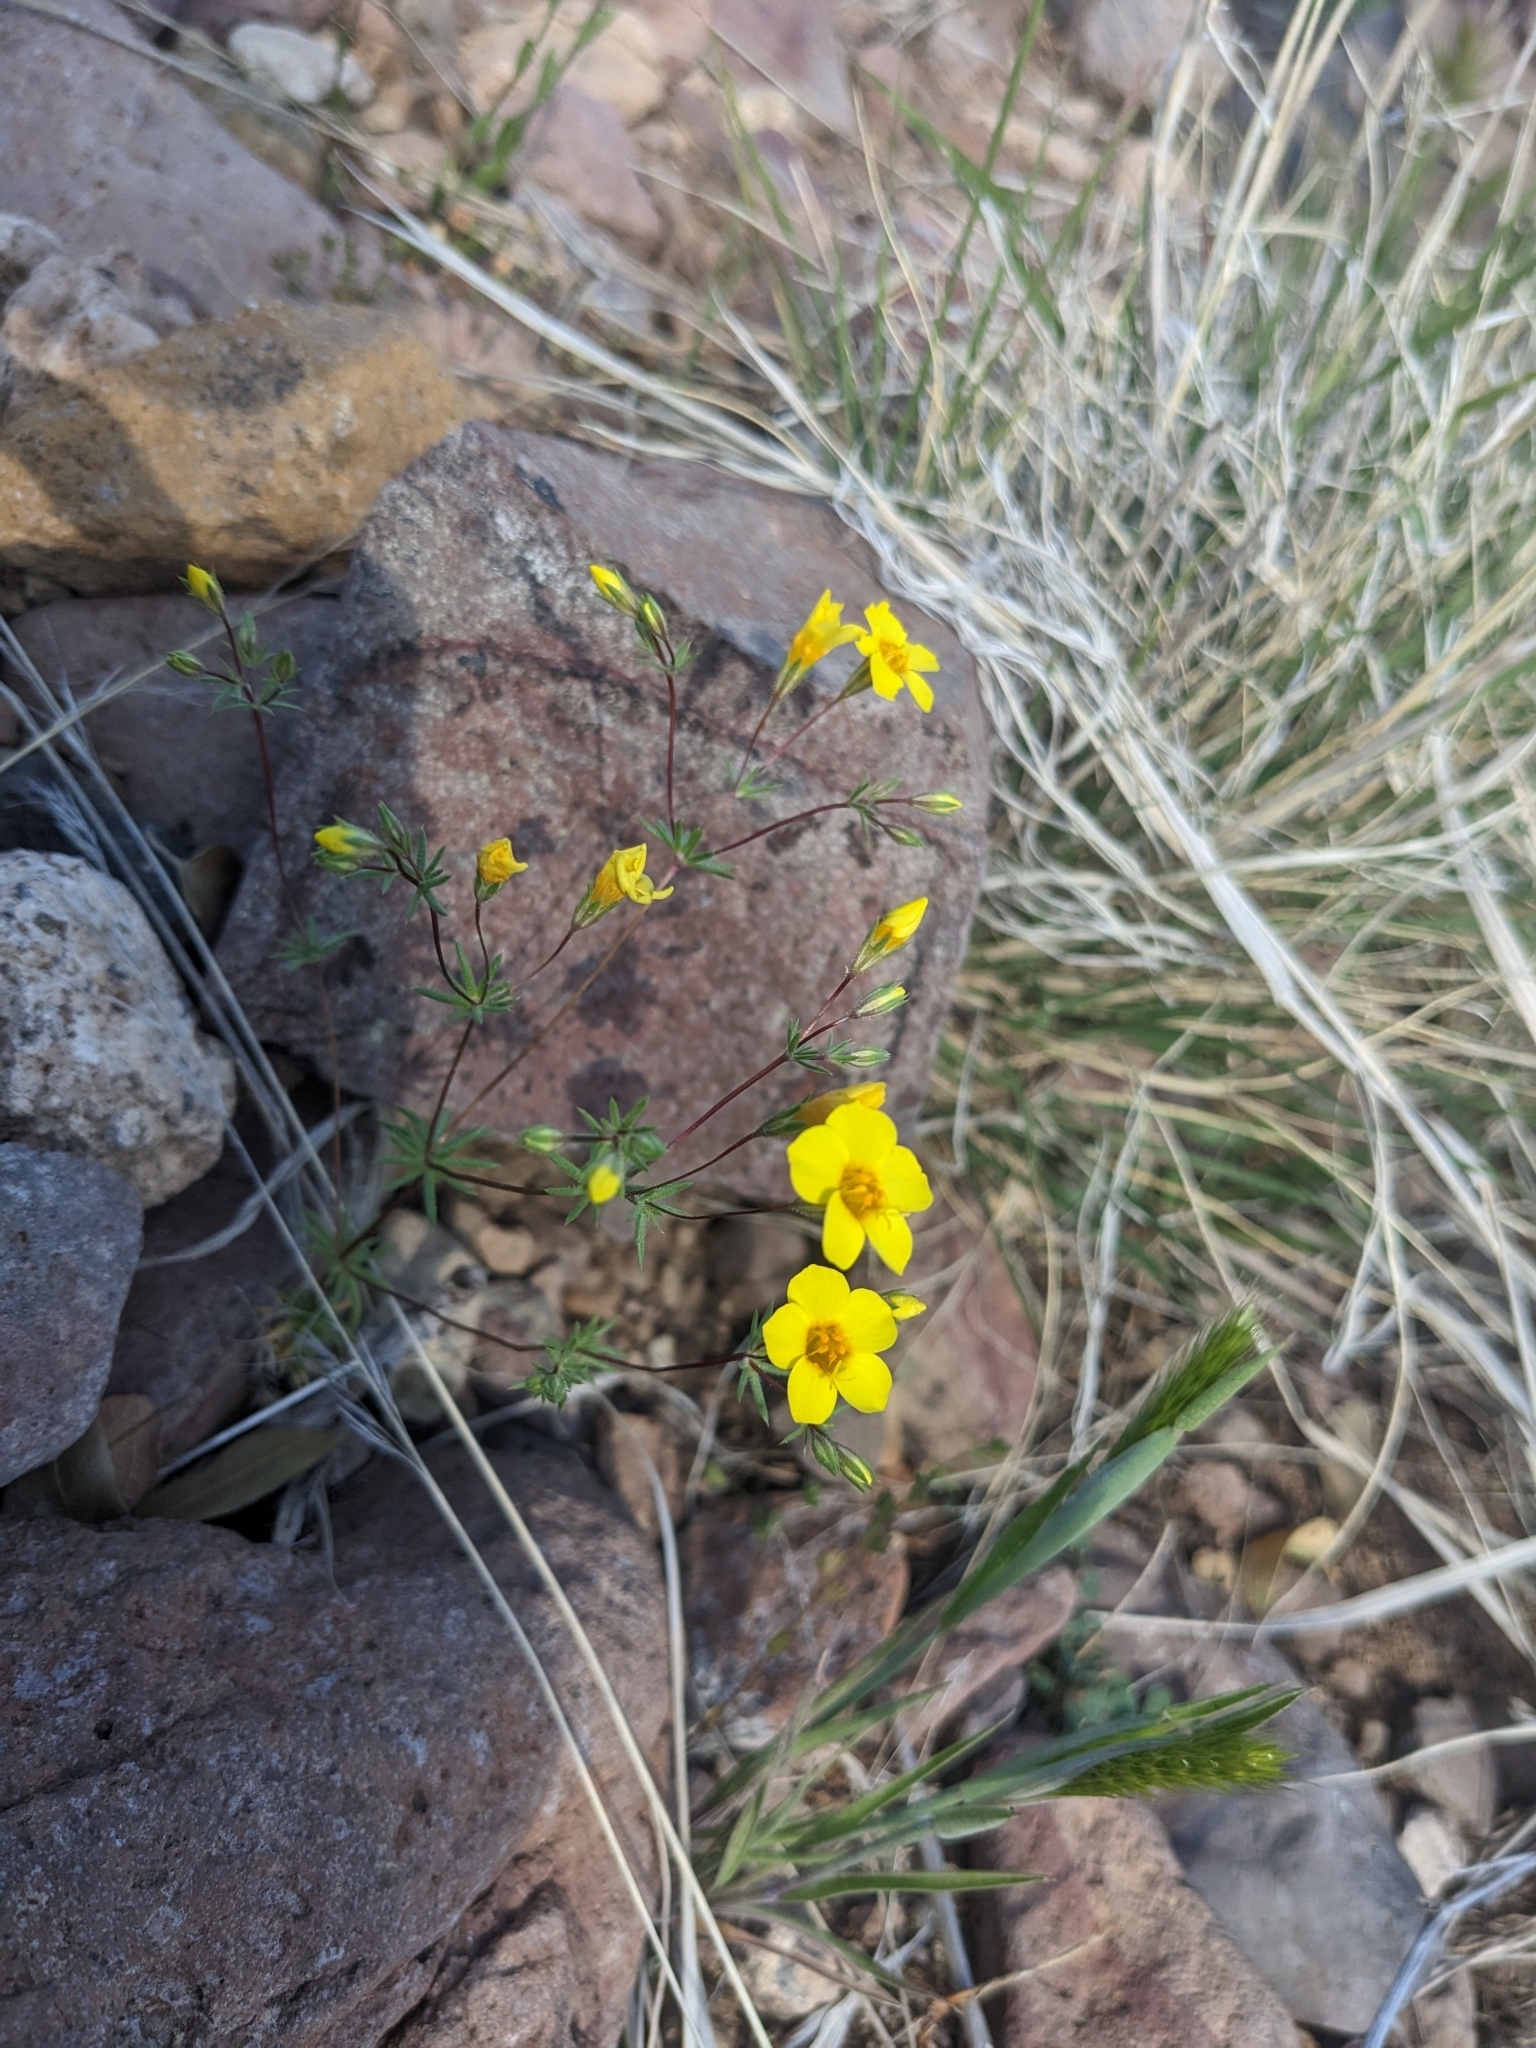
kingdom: Plantae
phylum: Tracheophyta
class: Magnoliopsida
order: Ericales
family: Polemoniaceae
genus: Leptosiphon
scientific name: Leptosiphon chrysanthus
